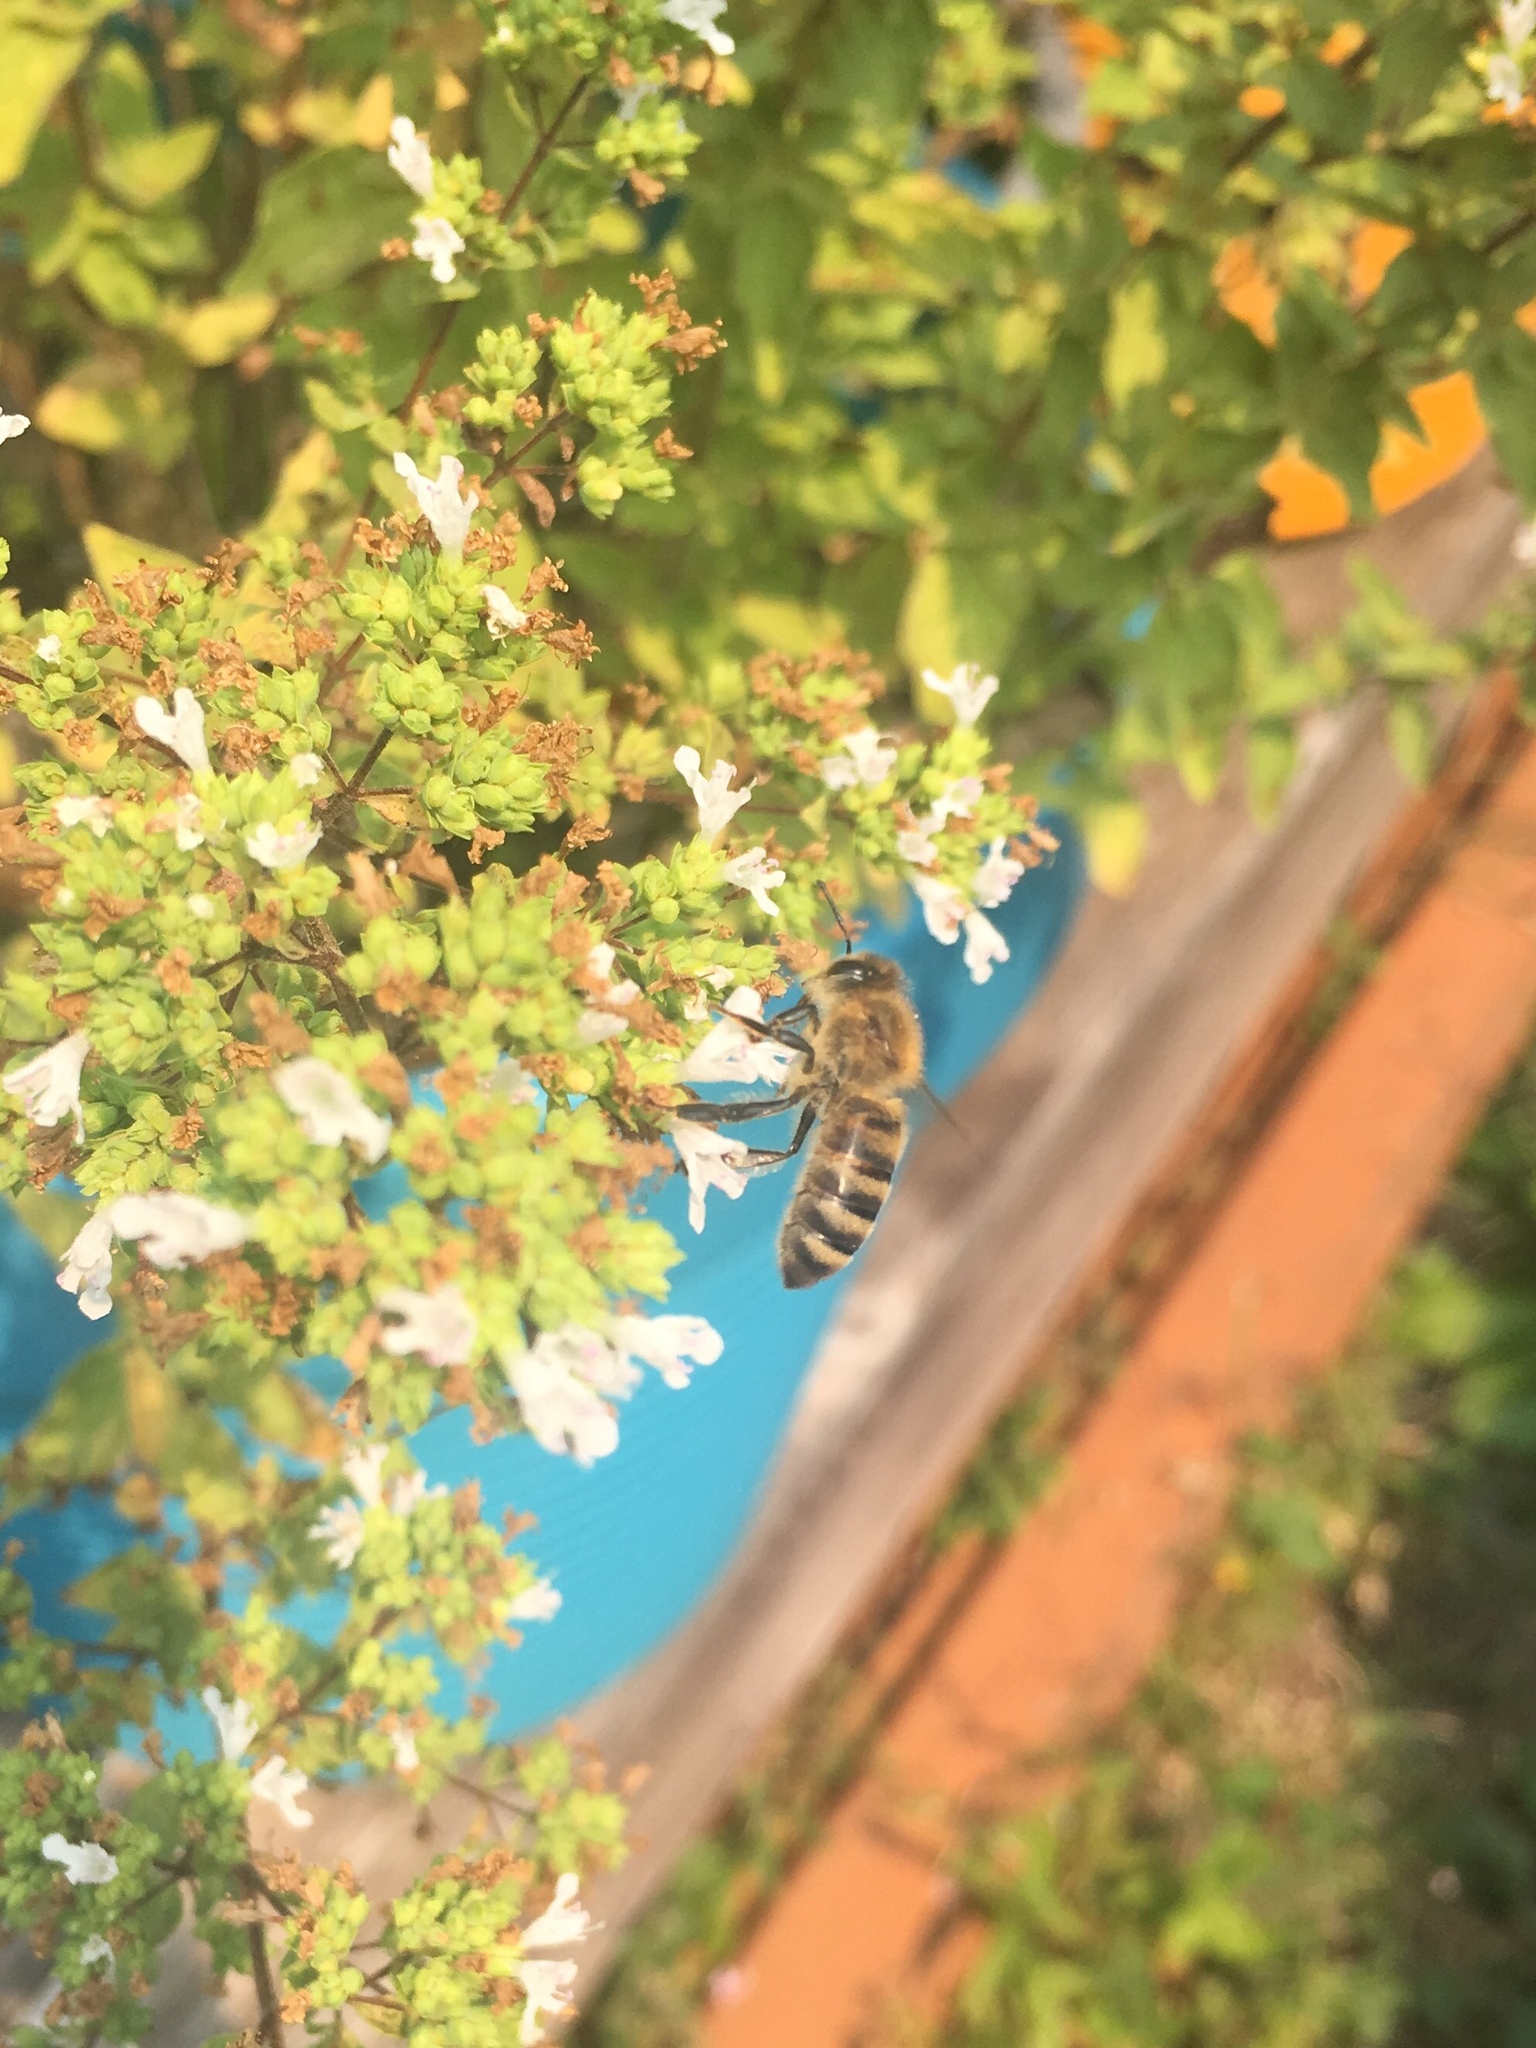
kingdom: Animalia
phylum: Arthropoda
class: Insecta
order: Hymenoptera
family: Apidae
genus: Apis
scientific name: Apis mellifera
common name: Honey bee
